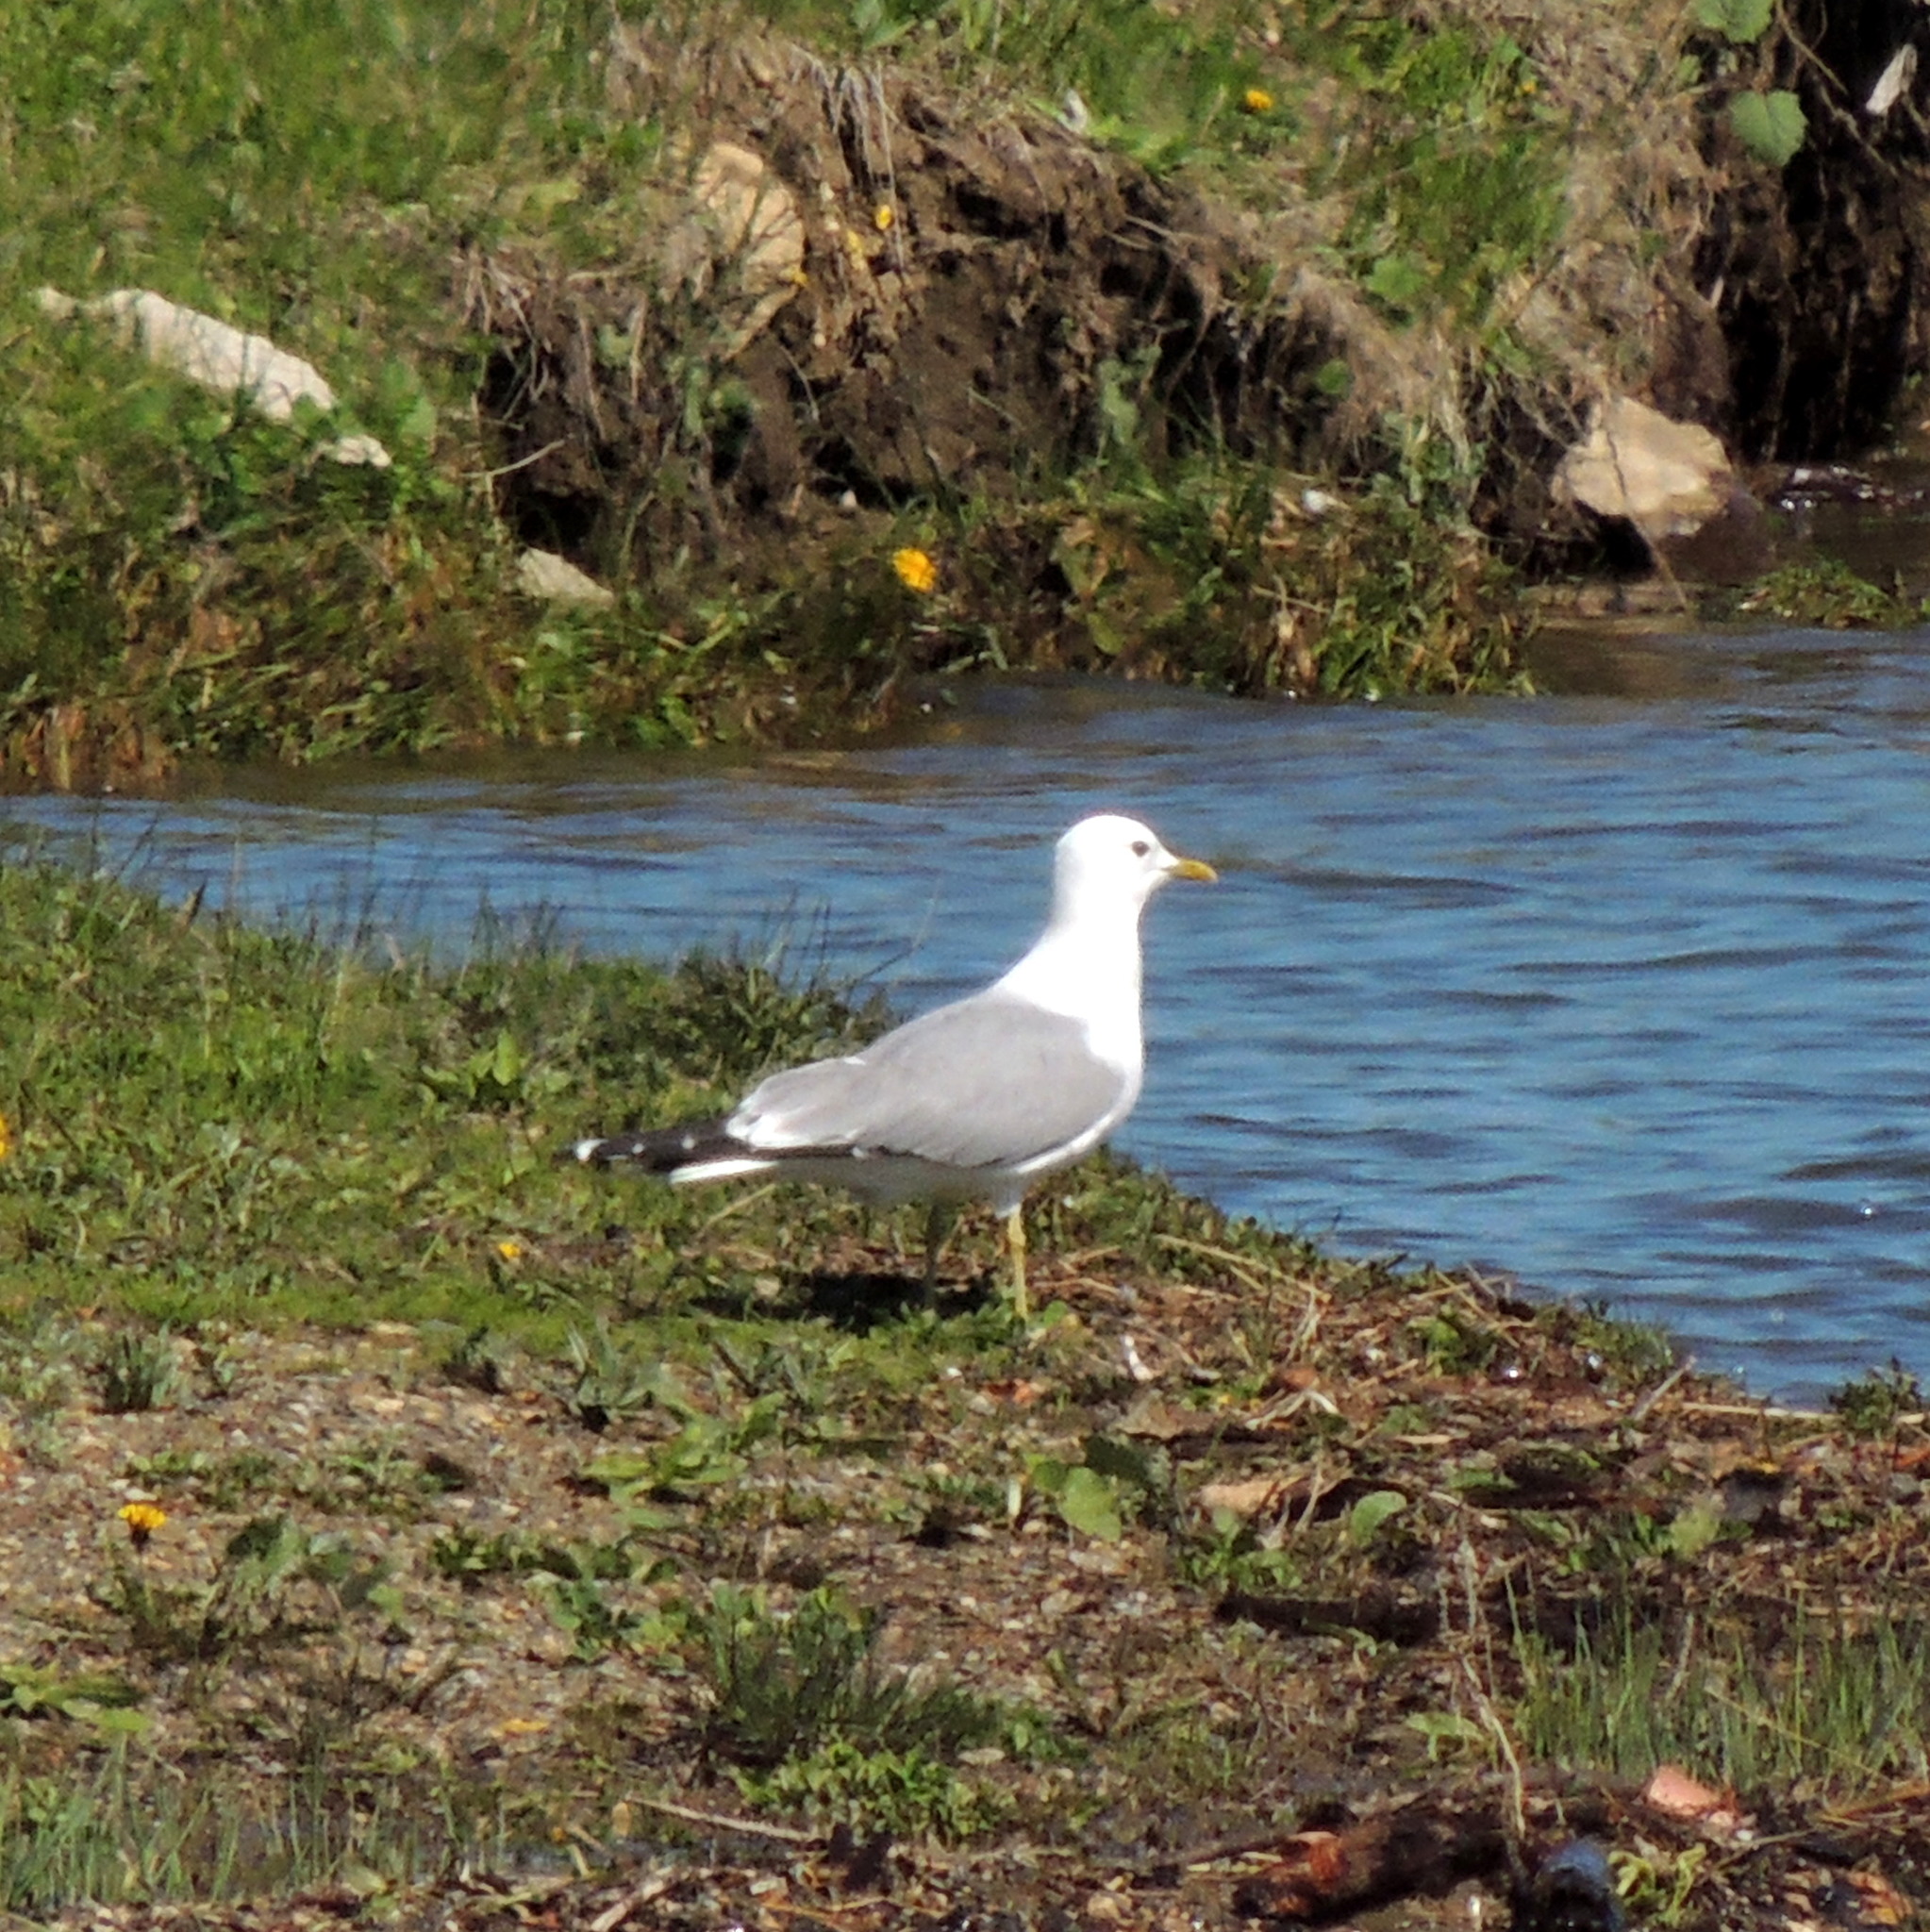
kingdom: Animalia
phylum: Chordata
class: Aves
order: Charadriiformes
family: Laridae
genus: Larus
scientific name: Larus canus
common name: Mew gull
